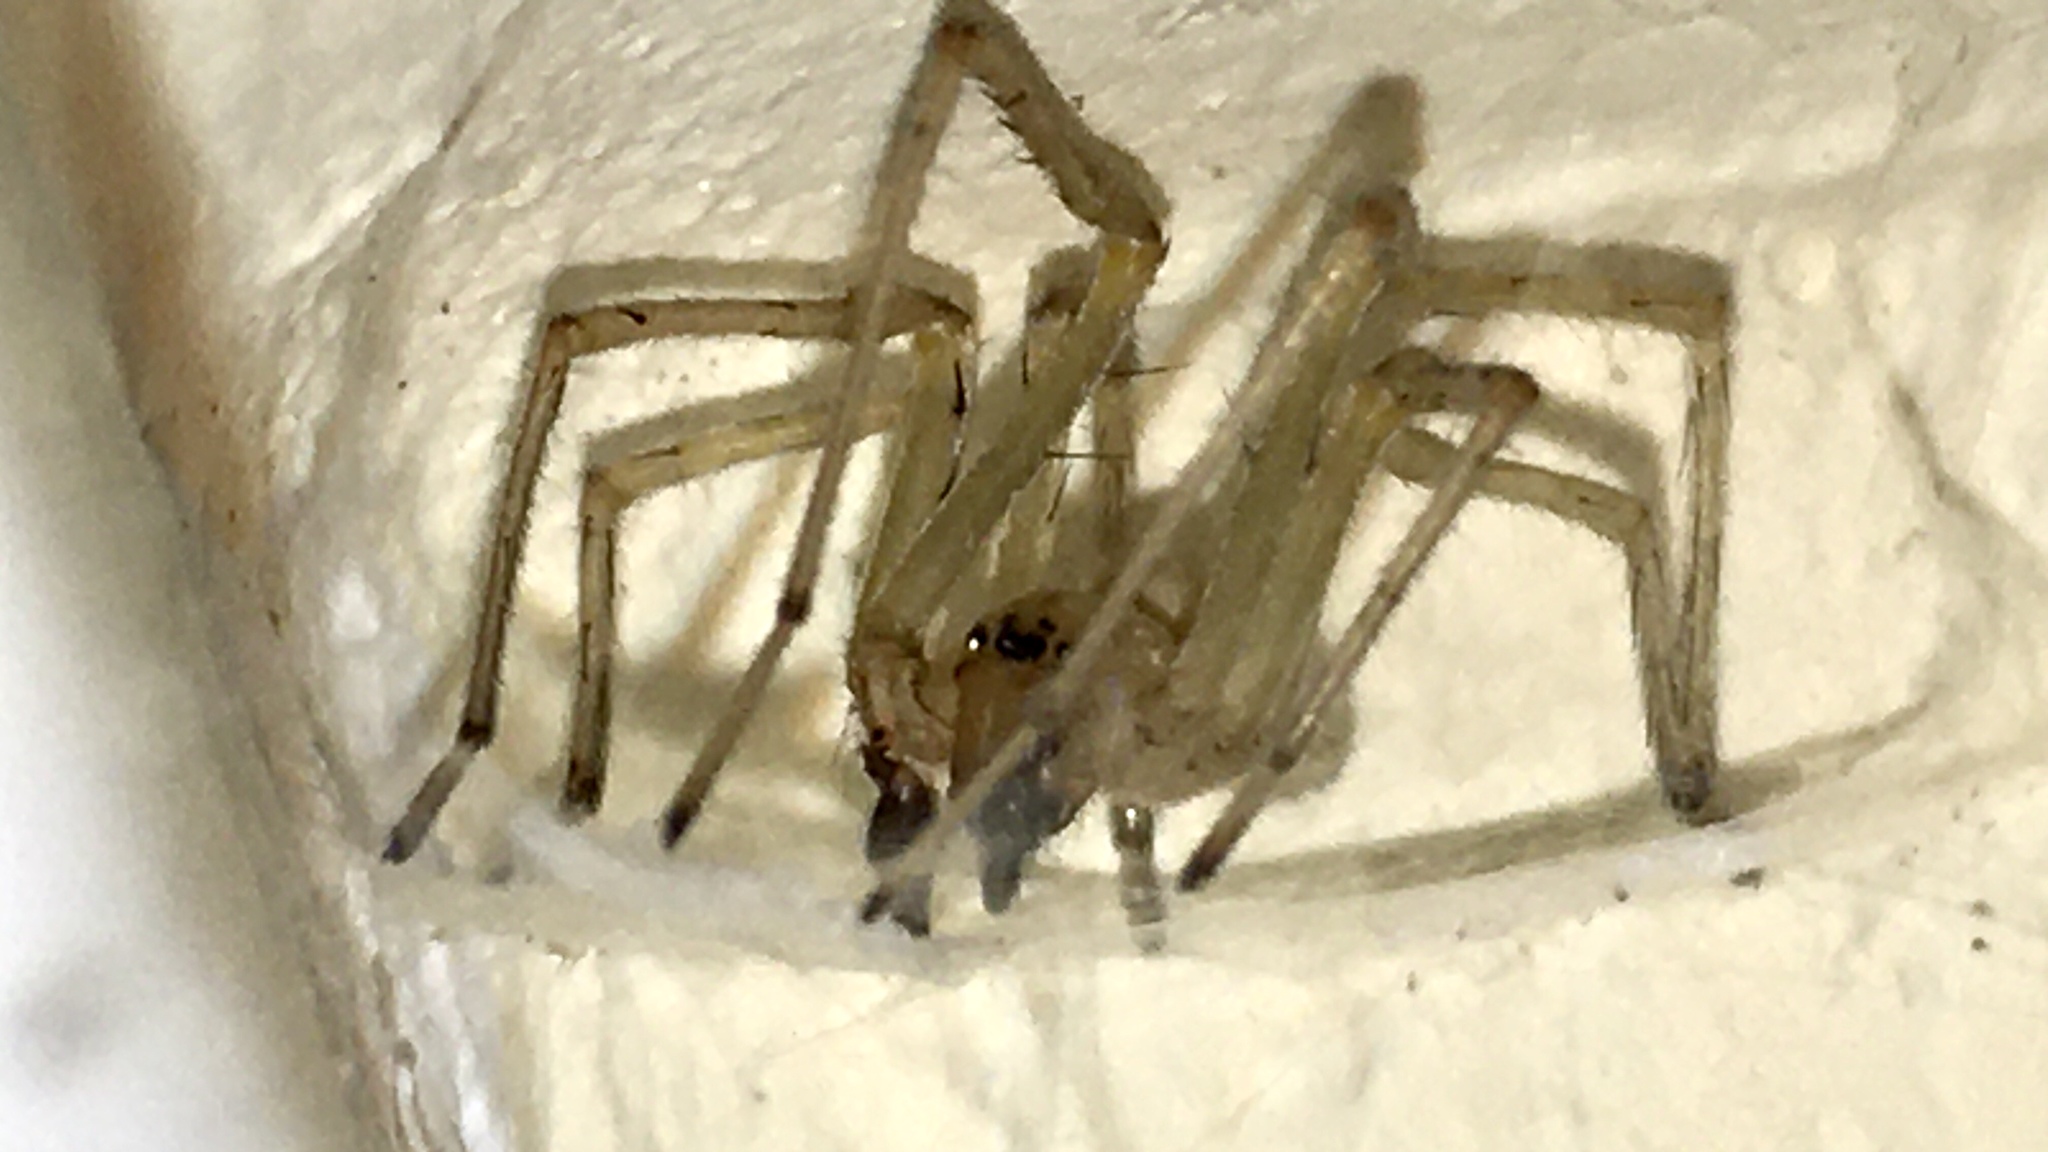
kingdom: Animalia
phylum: Arthropoda
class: Arachnida
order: Araneae
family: Cheiracanthiidae
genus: Cheiracanthium
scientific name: Cheiracanthium mildei
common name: Northern yellow sac spider
